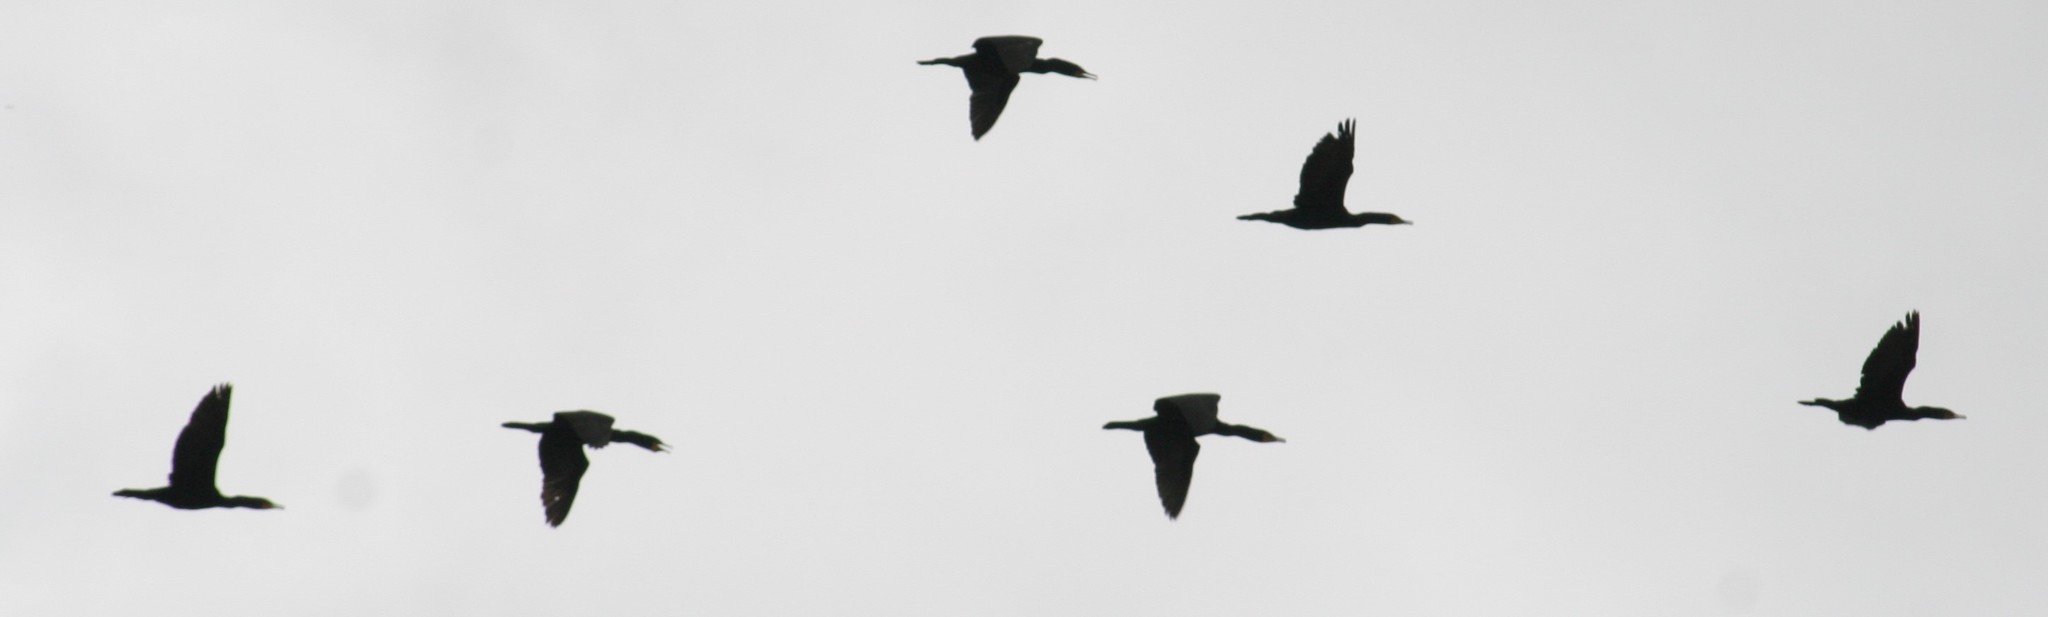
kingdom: Animalia
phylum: Chordata
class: Aves
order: Suliformes
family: Phalacrocoracidae
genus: Phalacrocorax
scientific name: Phalacrocorax auritus
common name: Double-crested cormorant
